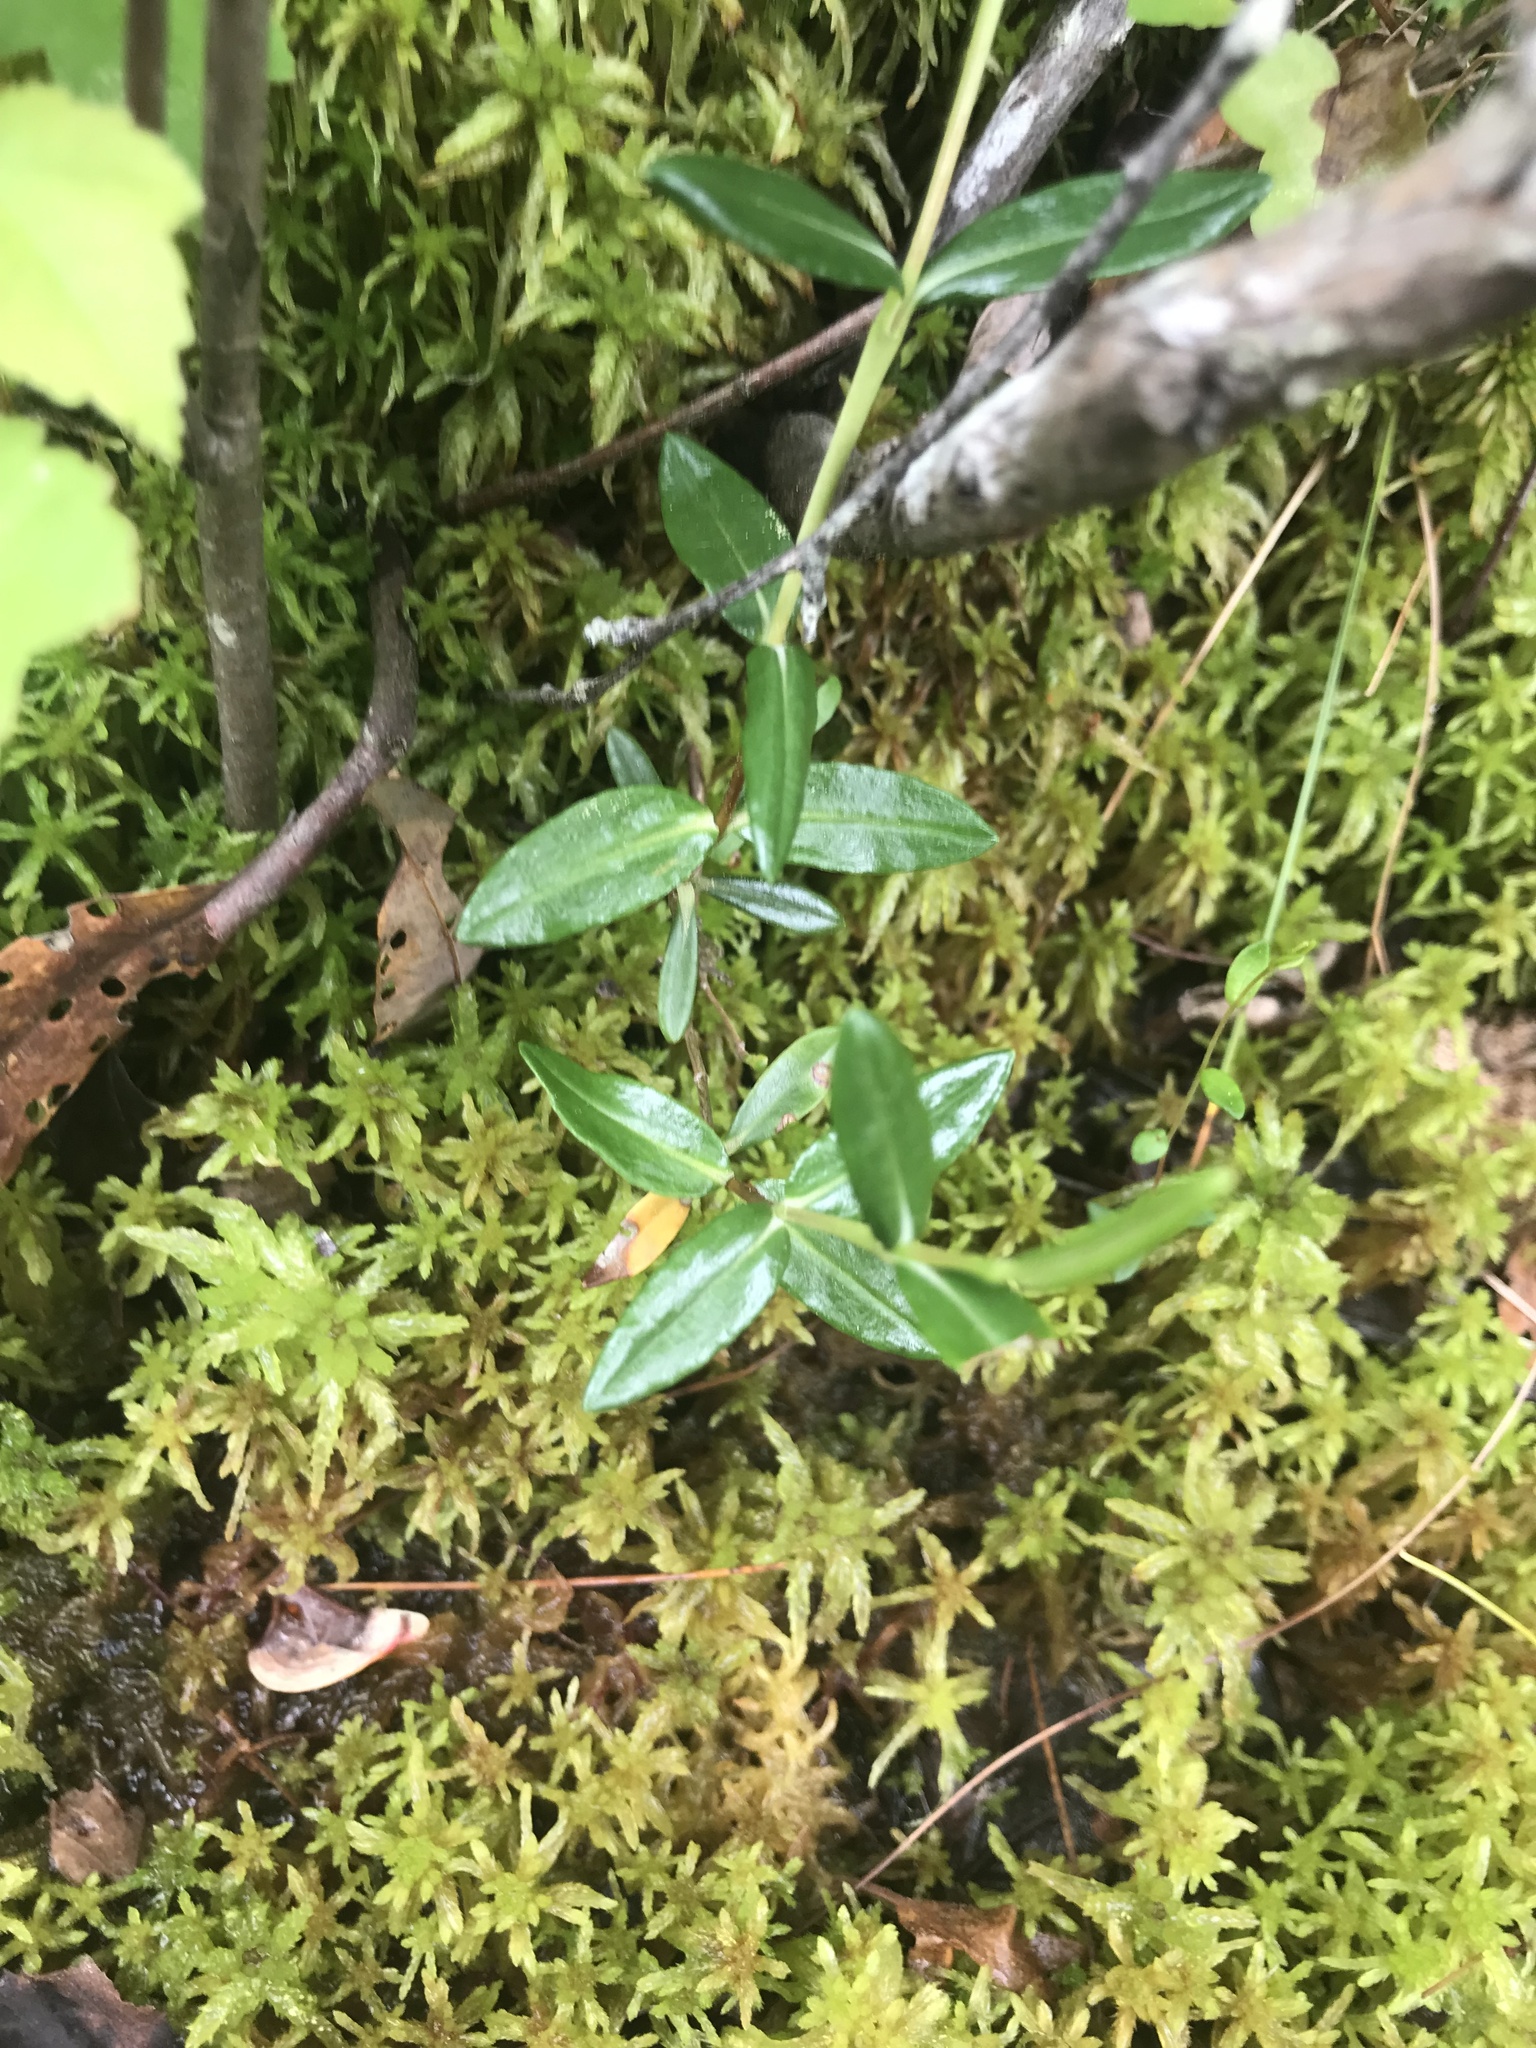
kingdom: Plantae
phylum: Tracheophyta
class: Magnoliopsida
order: Ericales
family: Ericaceae
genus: Kalmia
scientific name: Kalmia polifolia
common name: Bog-laurel
